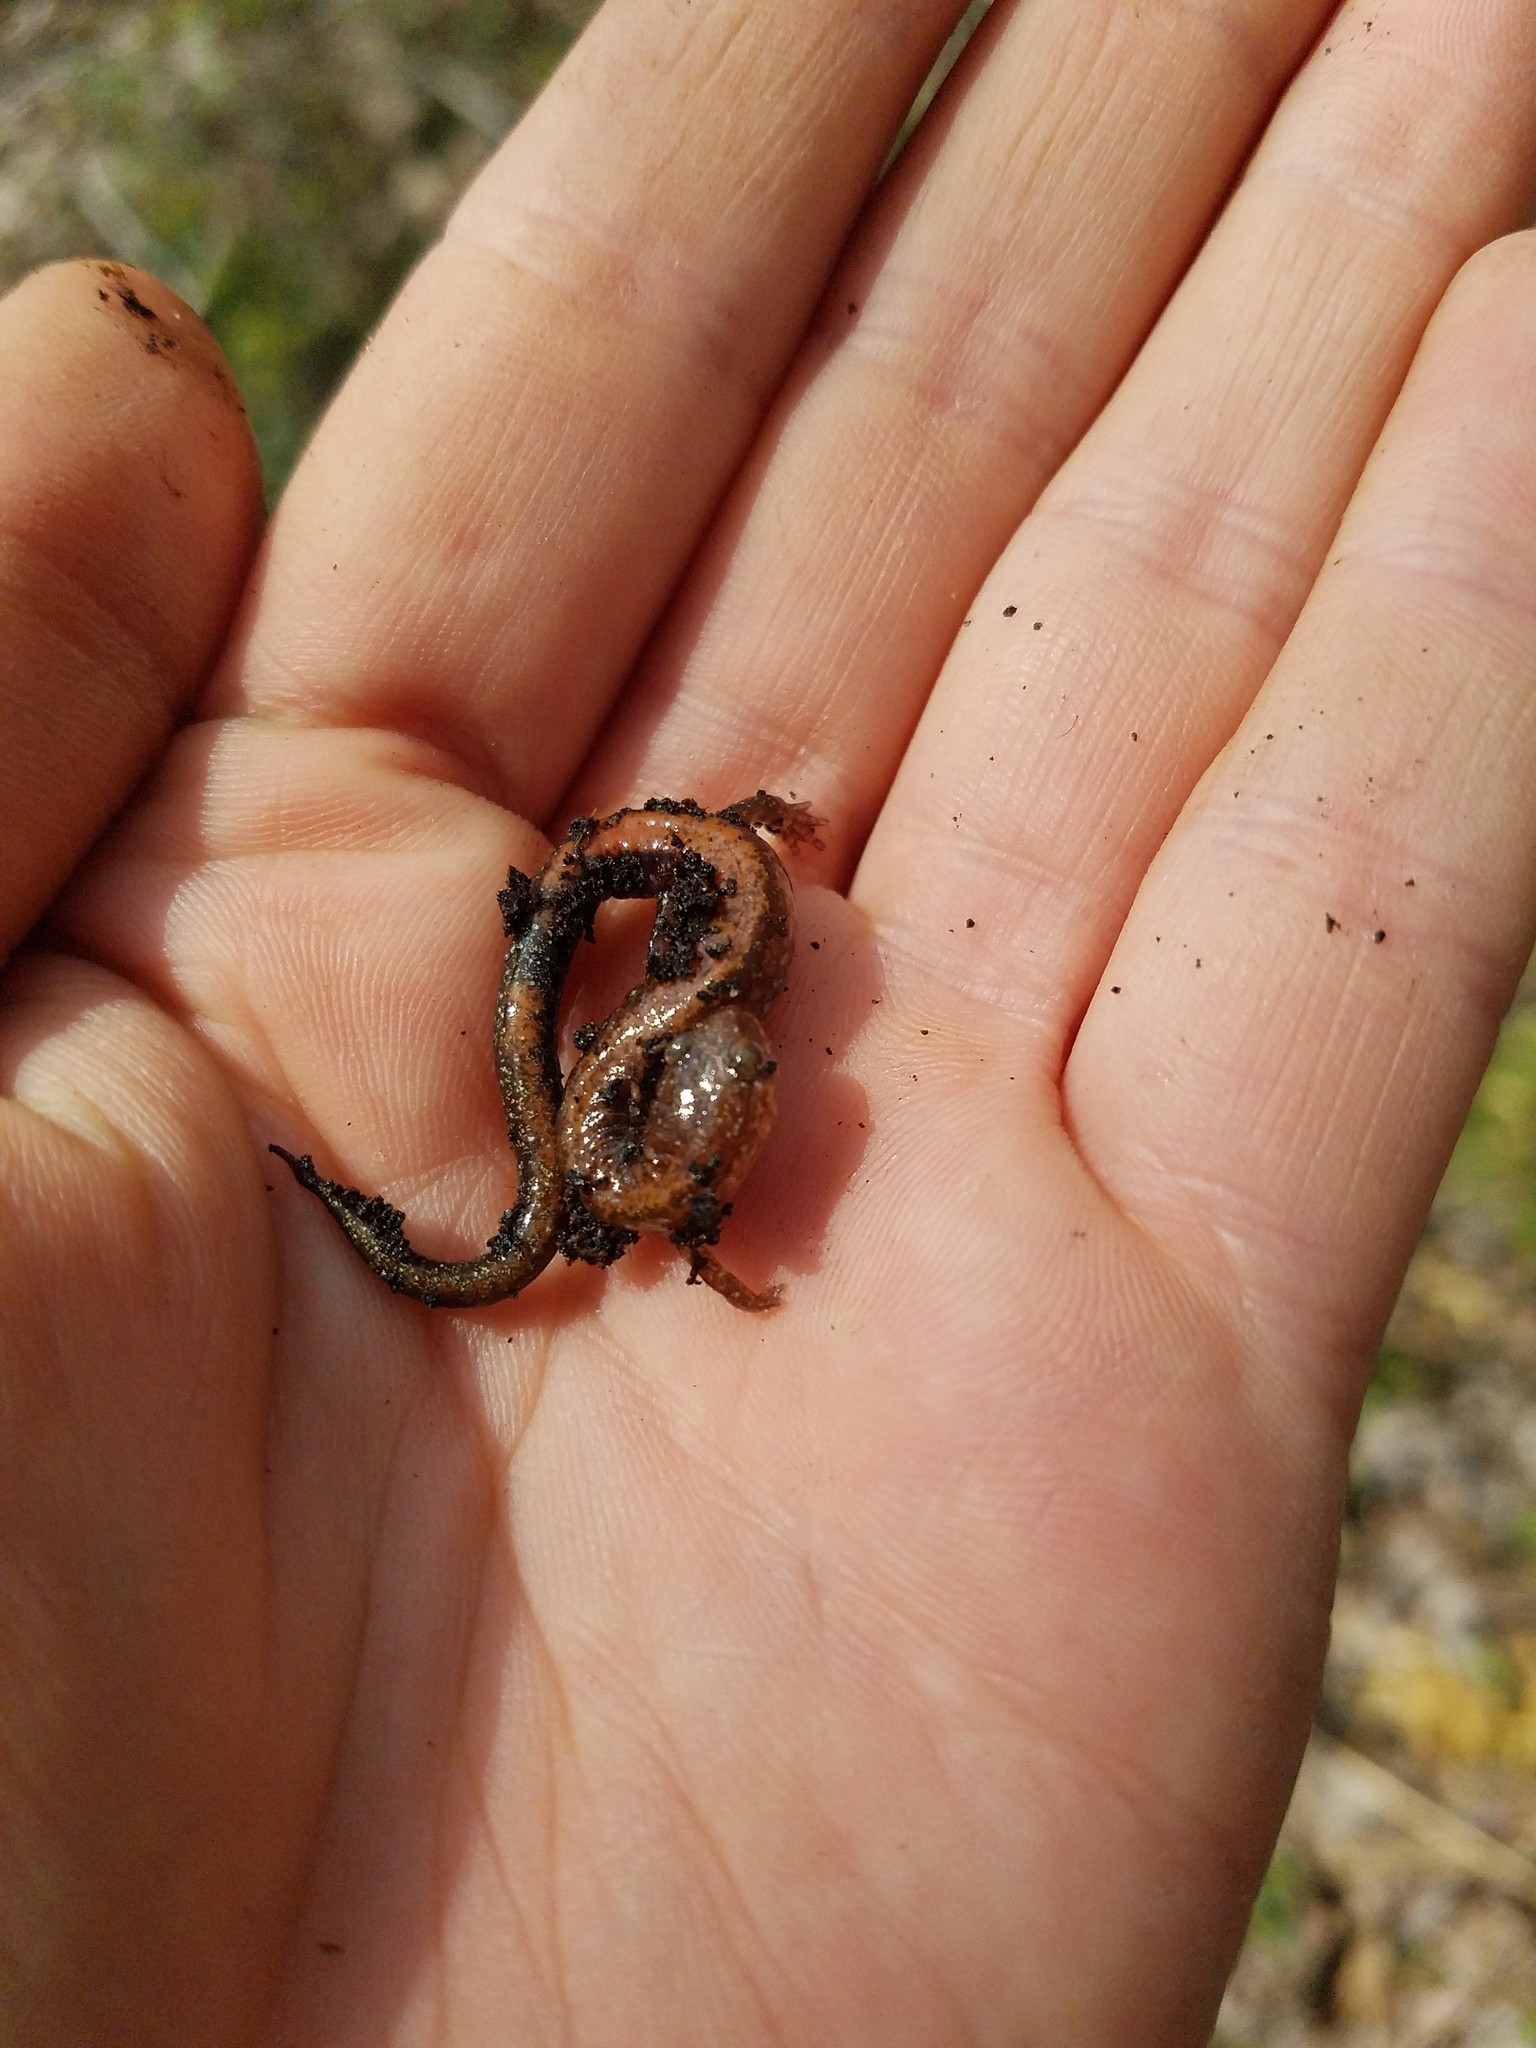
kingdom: Animalia
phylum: Chordata
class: Amphibia
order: Caudata
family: Plethodontidae
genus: Plethodon
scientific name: Plethodon cinereus
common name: Redback salamander
